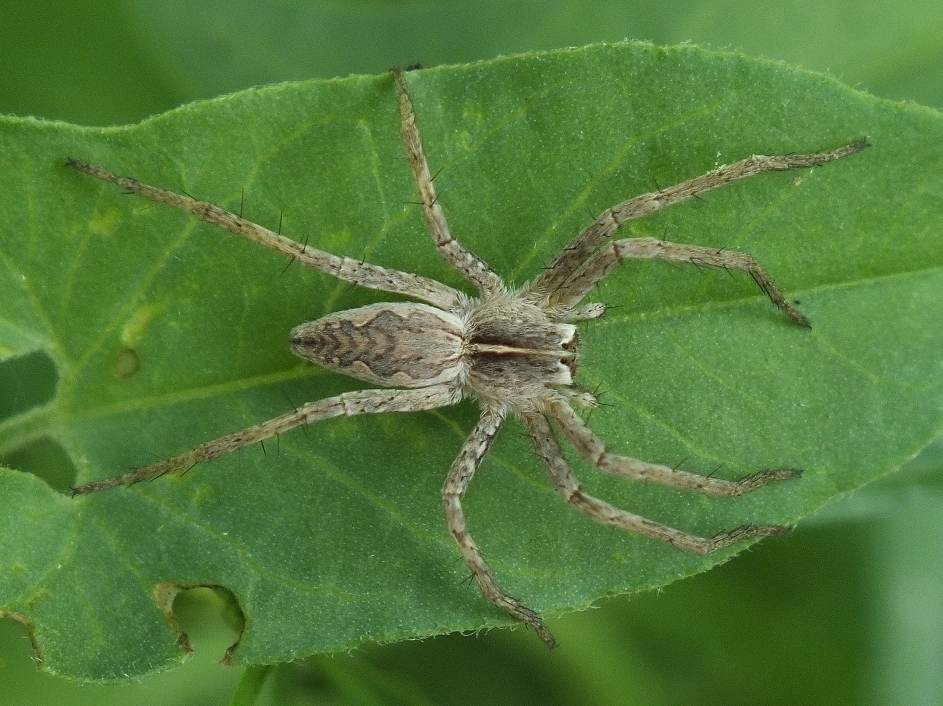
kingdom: Animalia
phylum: Arthropoda
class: Arachnida
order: Araneae
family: Pisauridae
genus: Pisaura
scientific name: Pisaura
